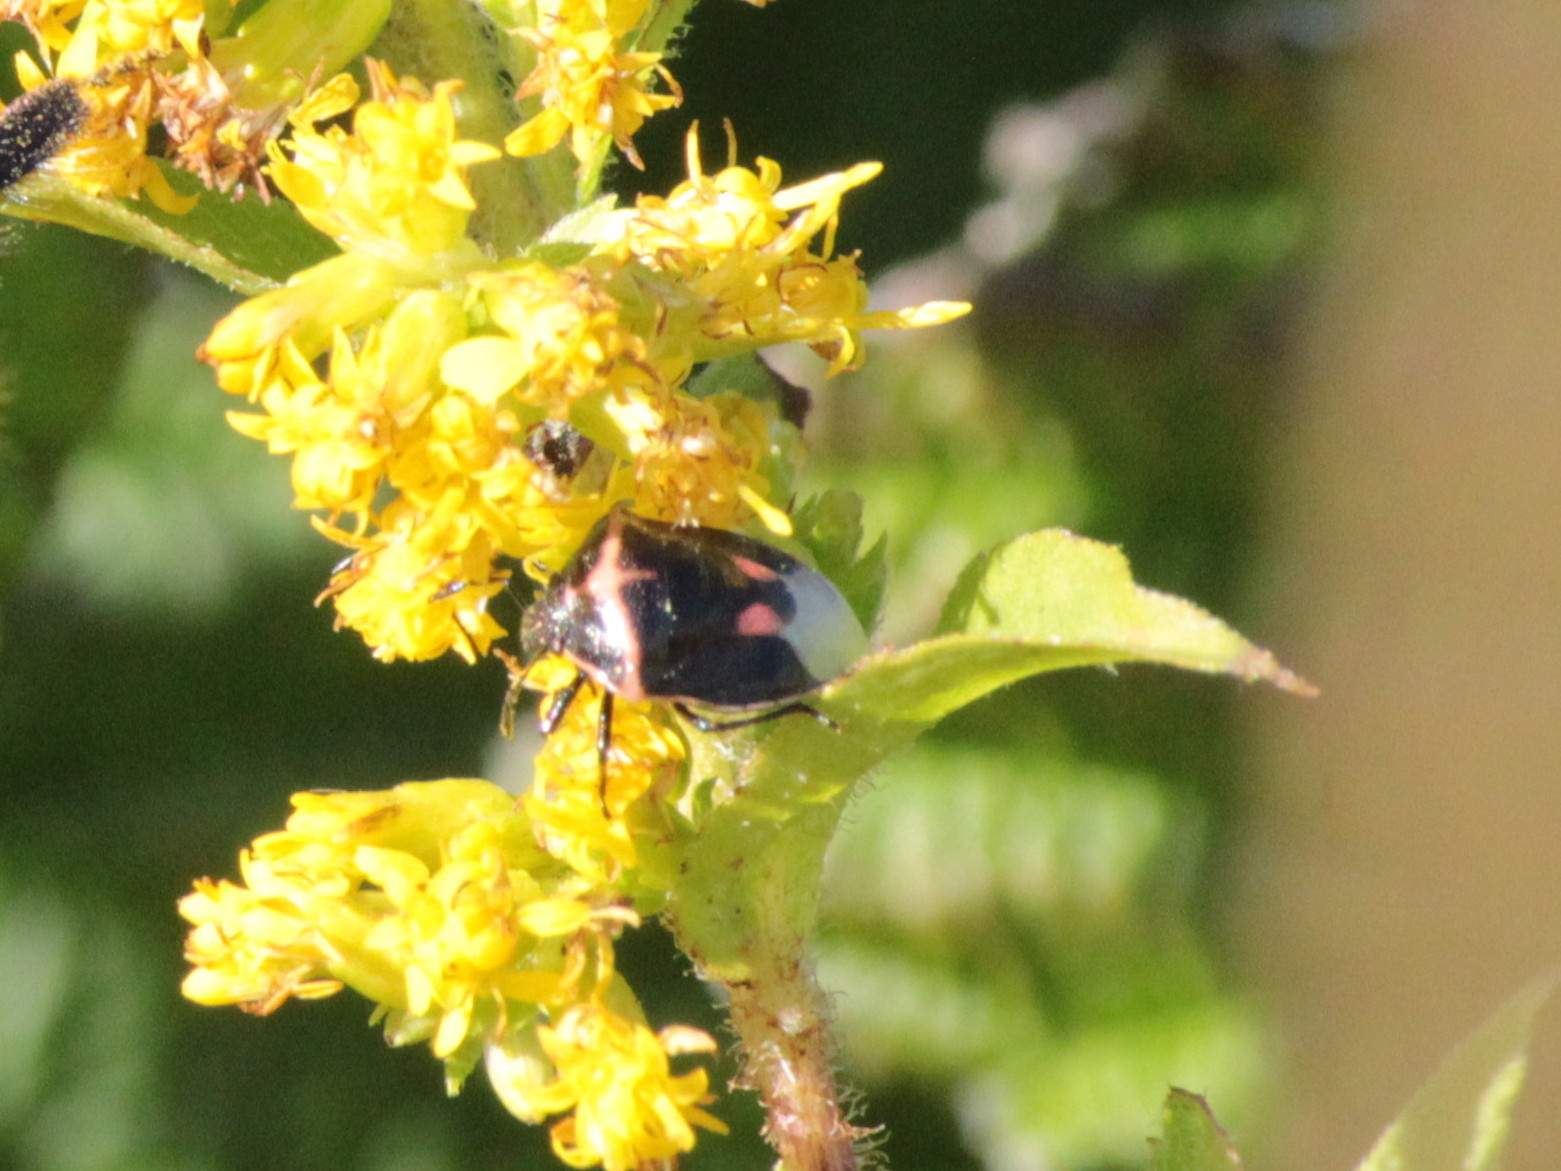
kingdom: Animalia
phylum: Arthropoda
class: Insecta
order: Hemiptera
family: Pentatomidae
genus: Cosmopepla
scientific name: Cosmopepla lintneriana
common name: Twice-stabbed stink bug
